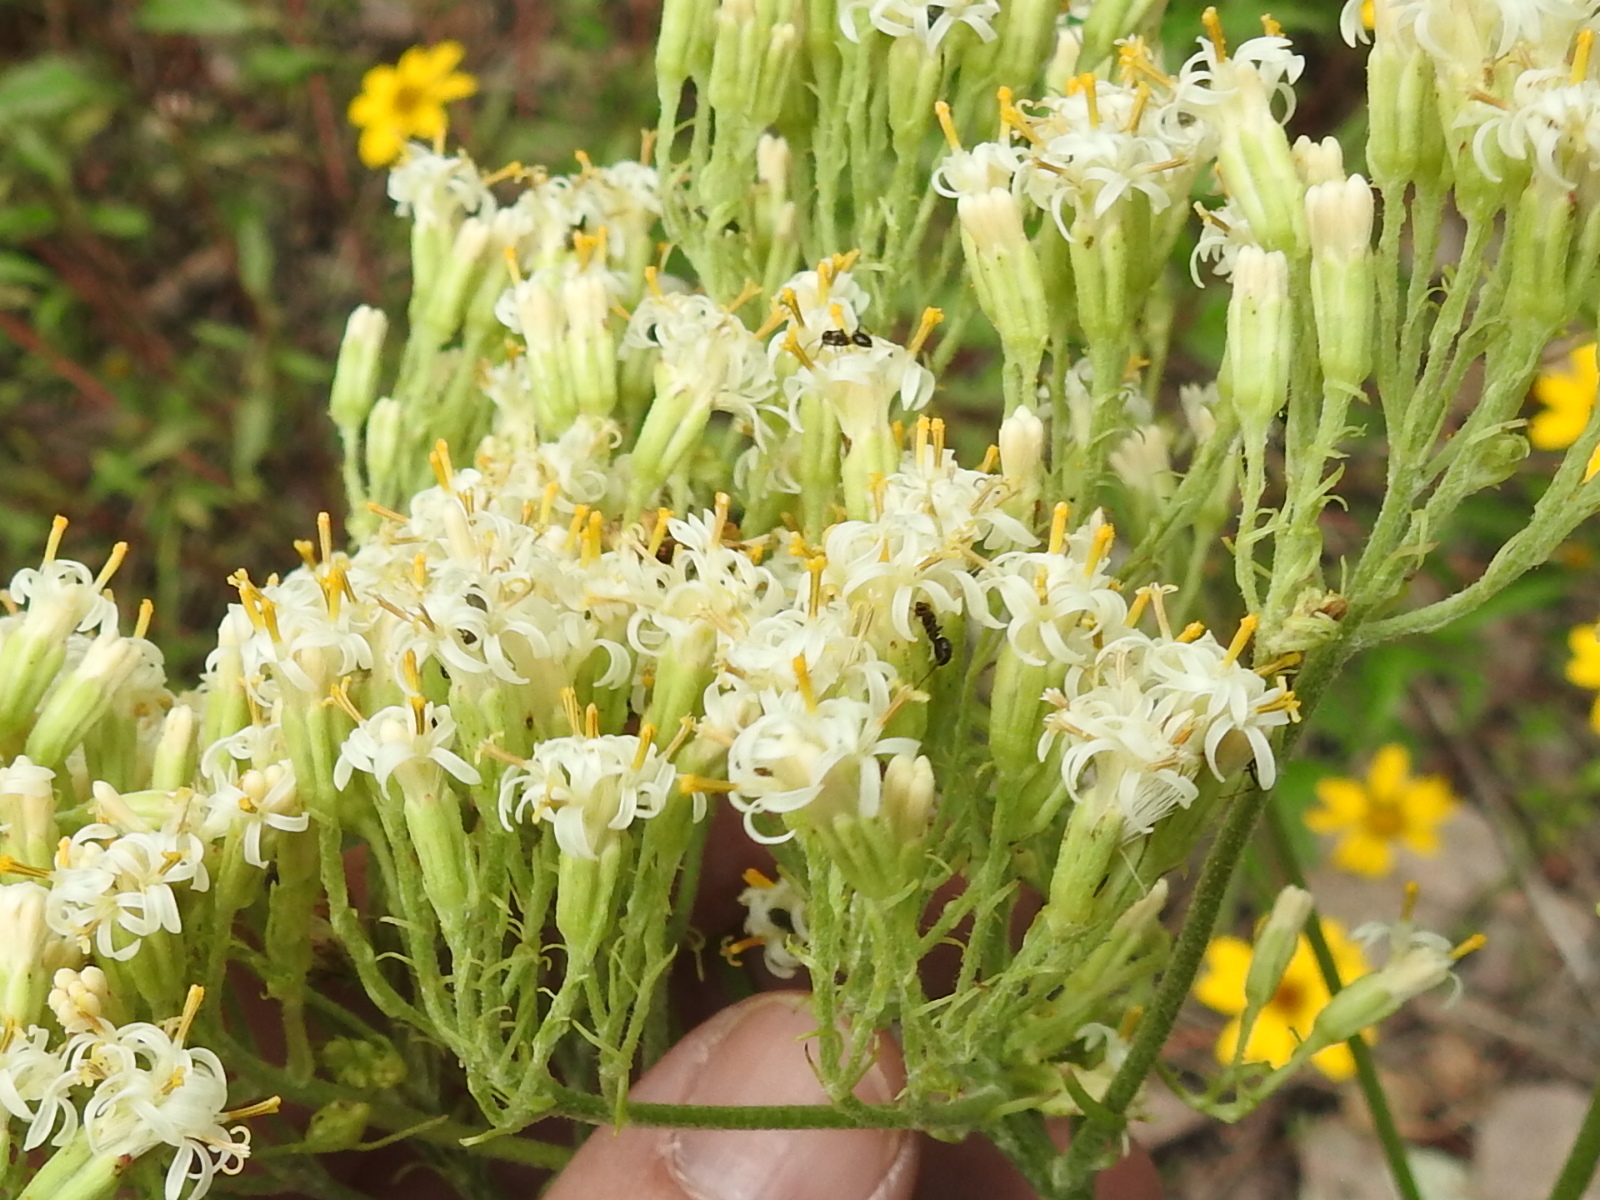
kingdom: Plantae
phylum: Tracheophyta
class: Magnoliopsida
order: Asterales
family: Asteraceae
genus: Psacalium
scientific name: Psacalium decompositum
